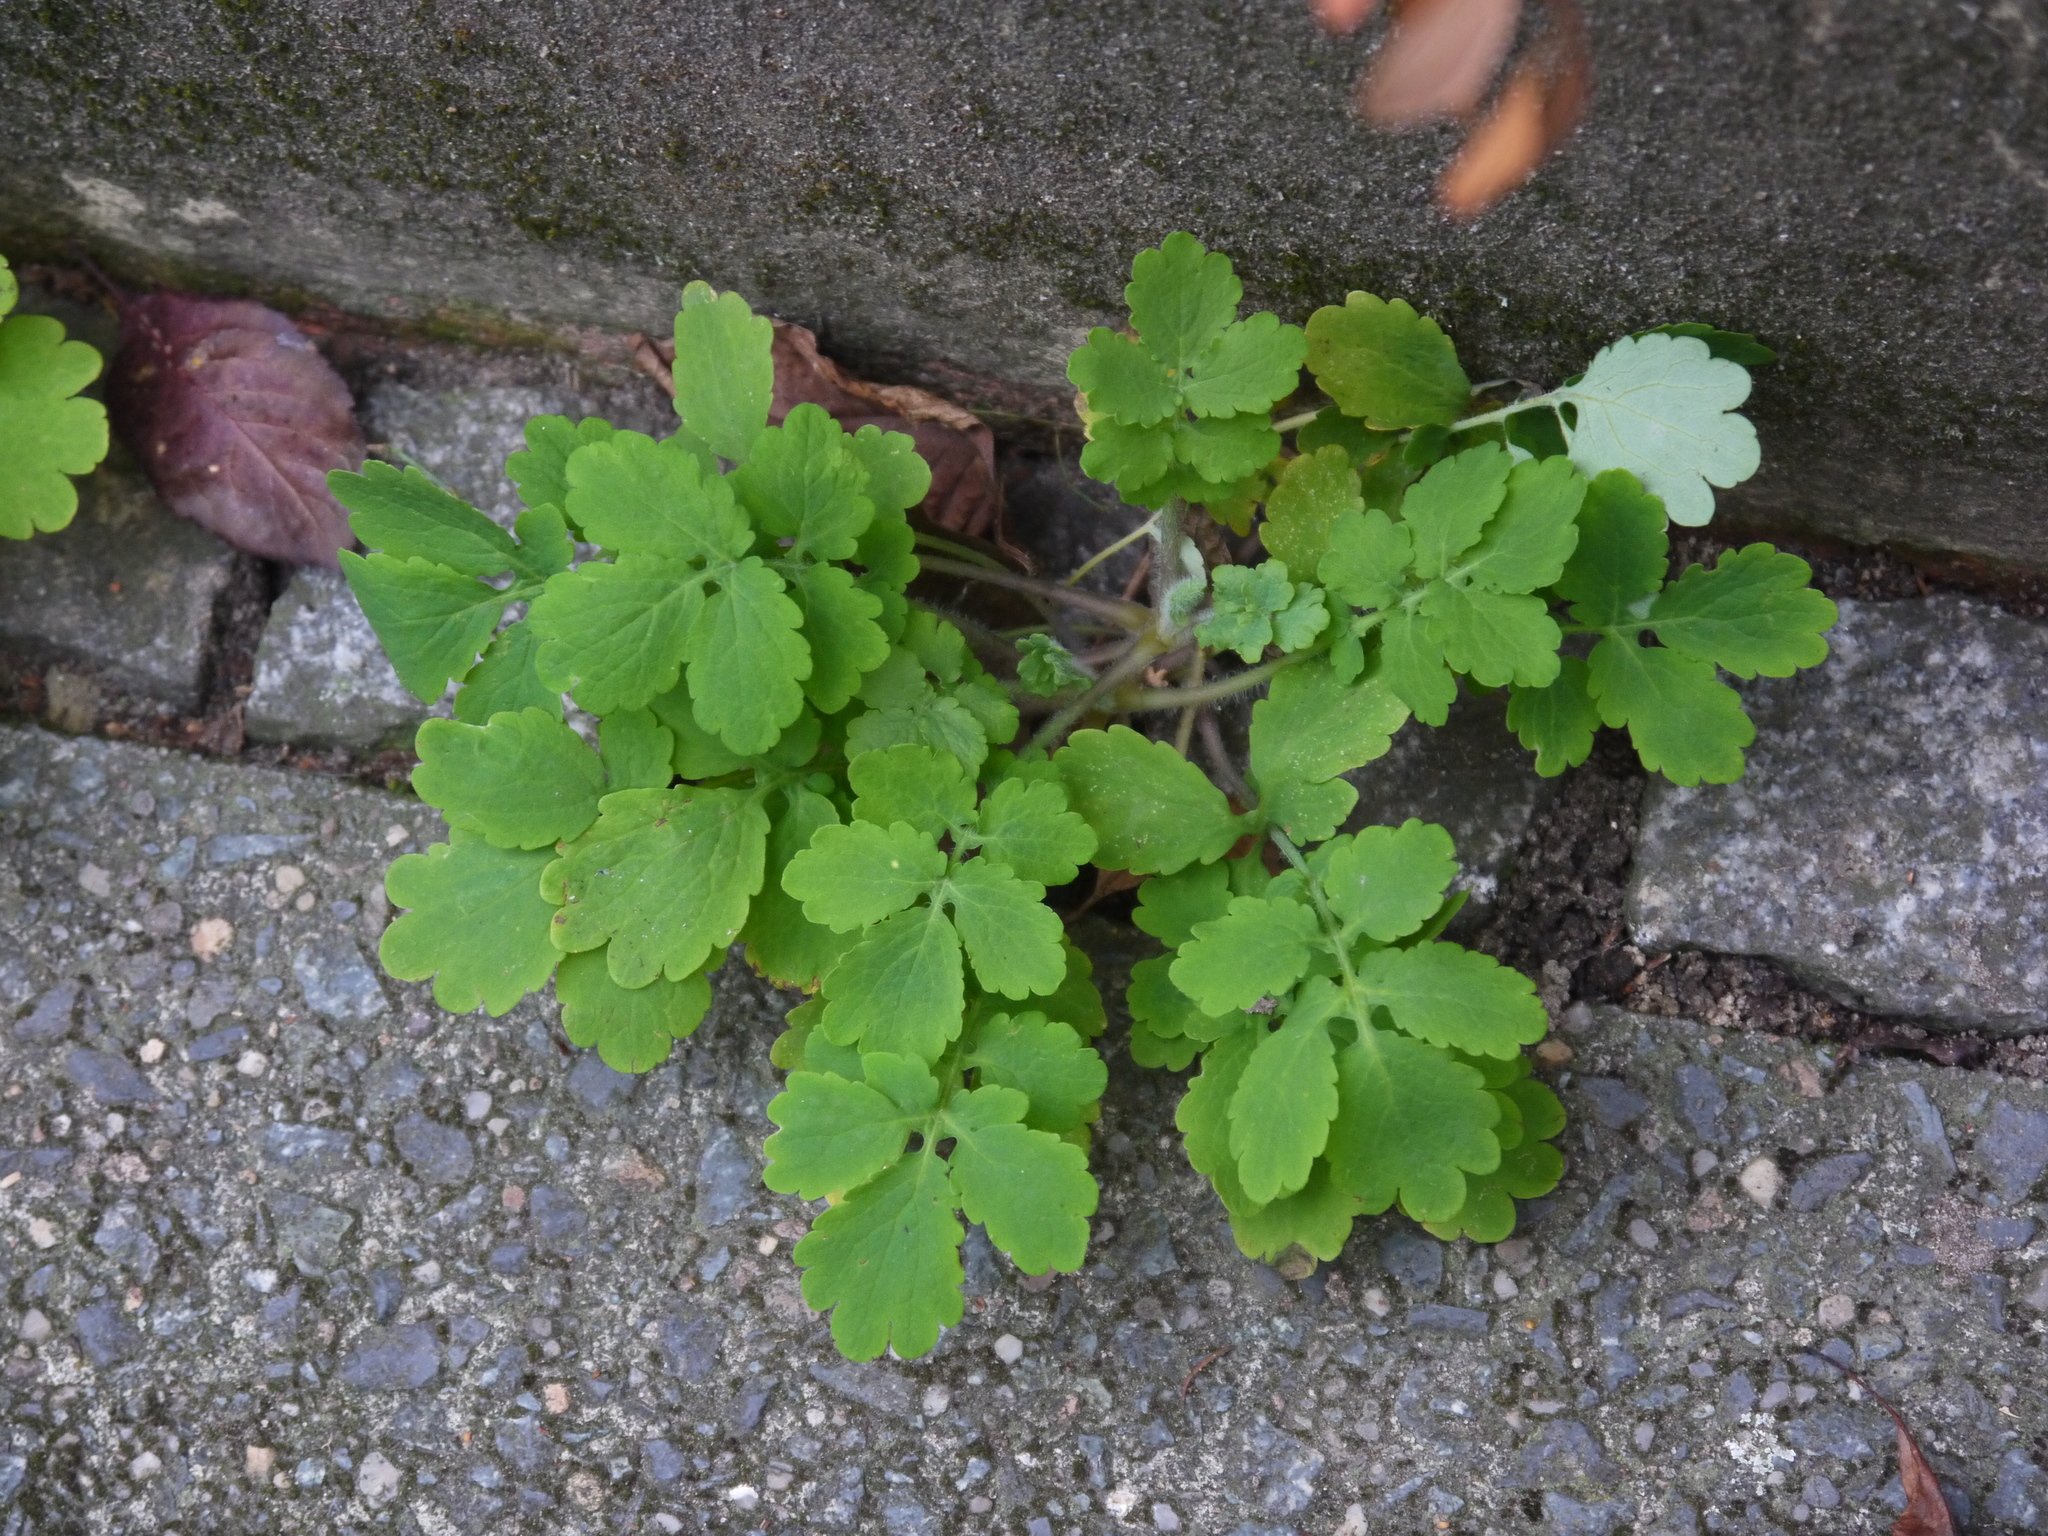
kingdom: Plantae
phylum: Tracheophyta
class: Magnoliopsida
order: Ranunculales
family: Papaveraceae
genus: Chelidonium
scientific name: Chelidonium majus
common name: Greater celandine
